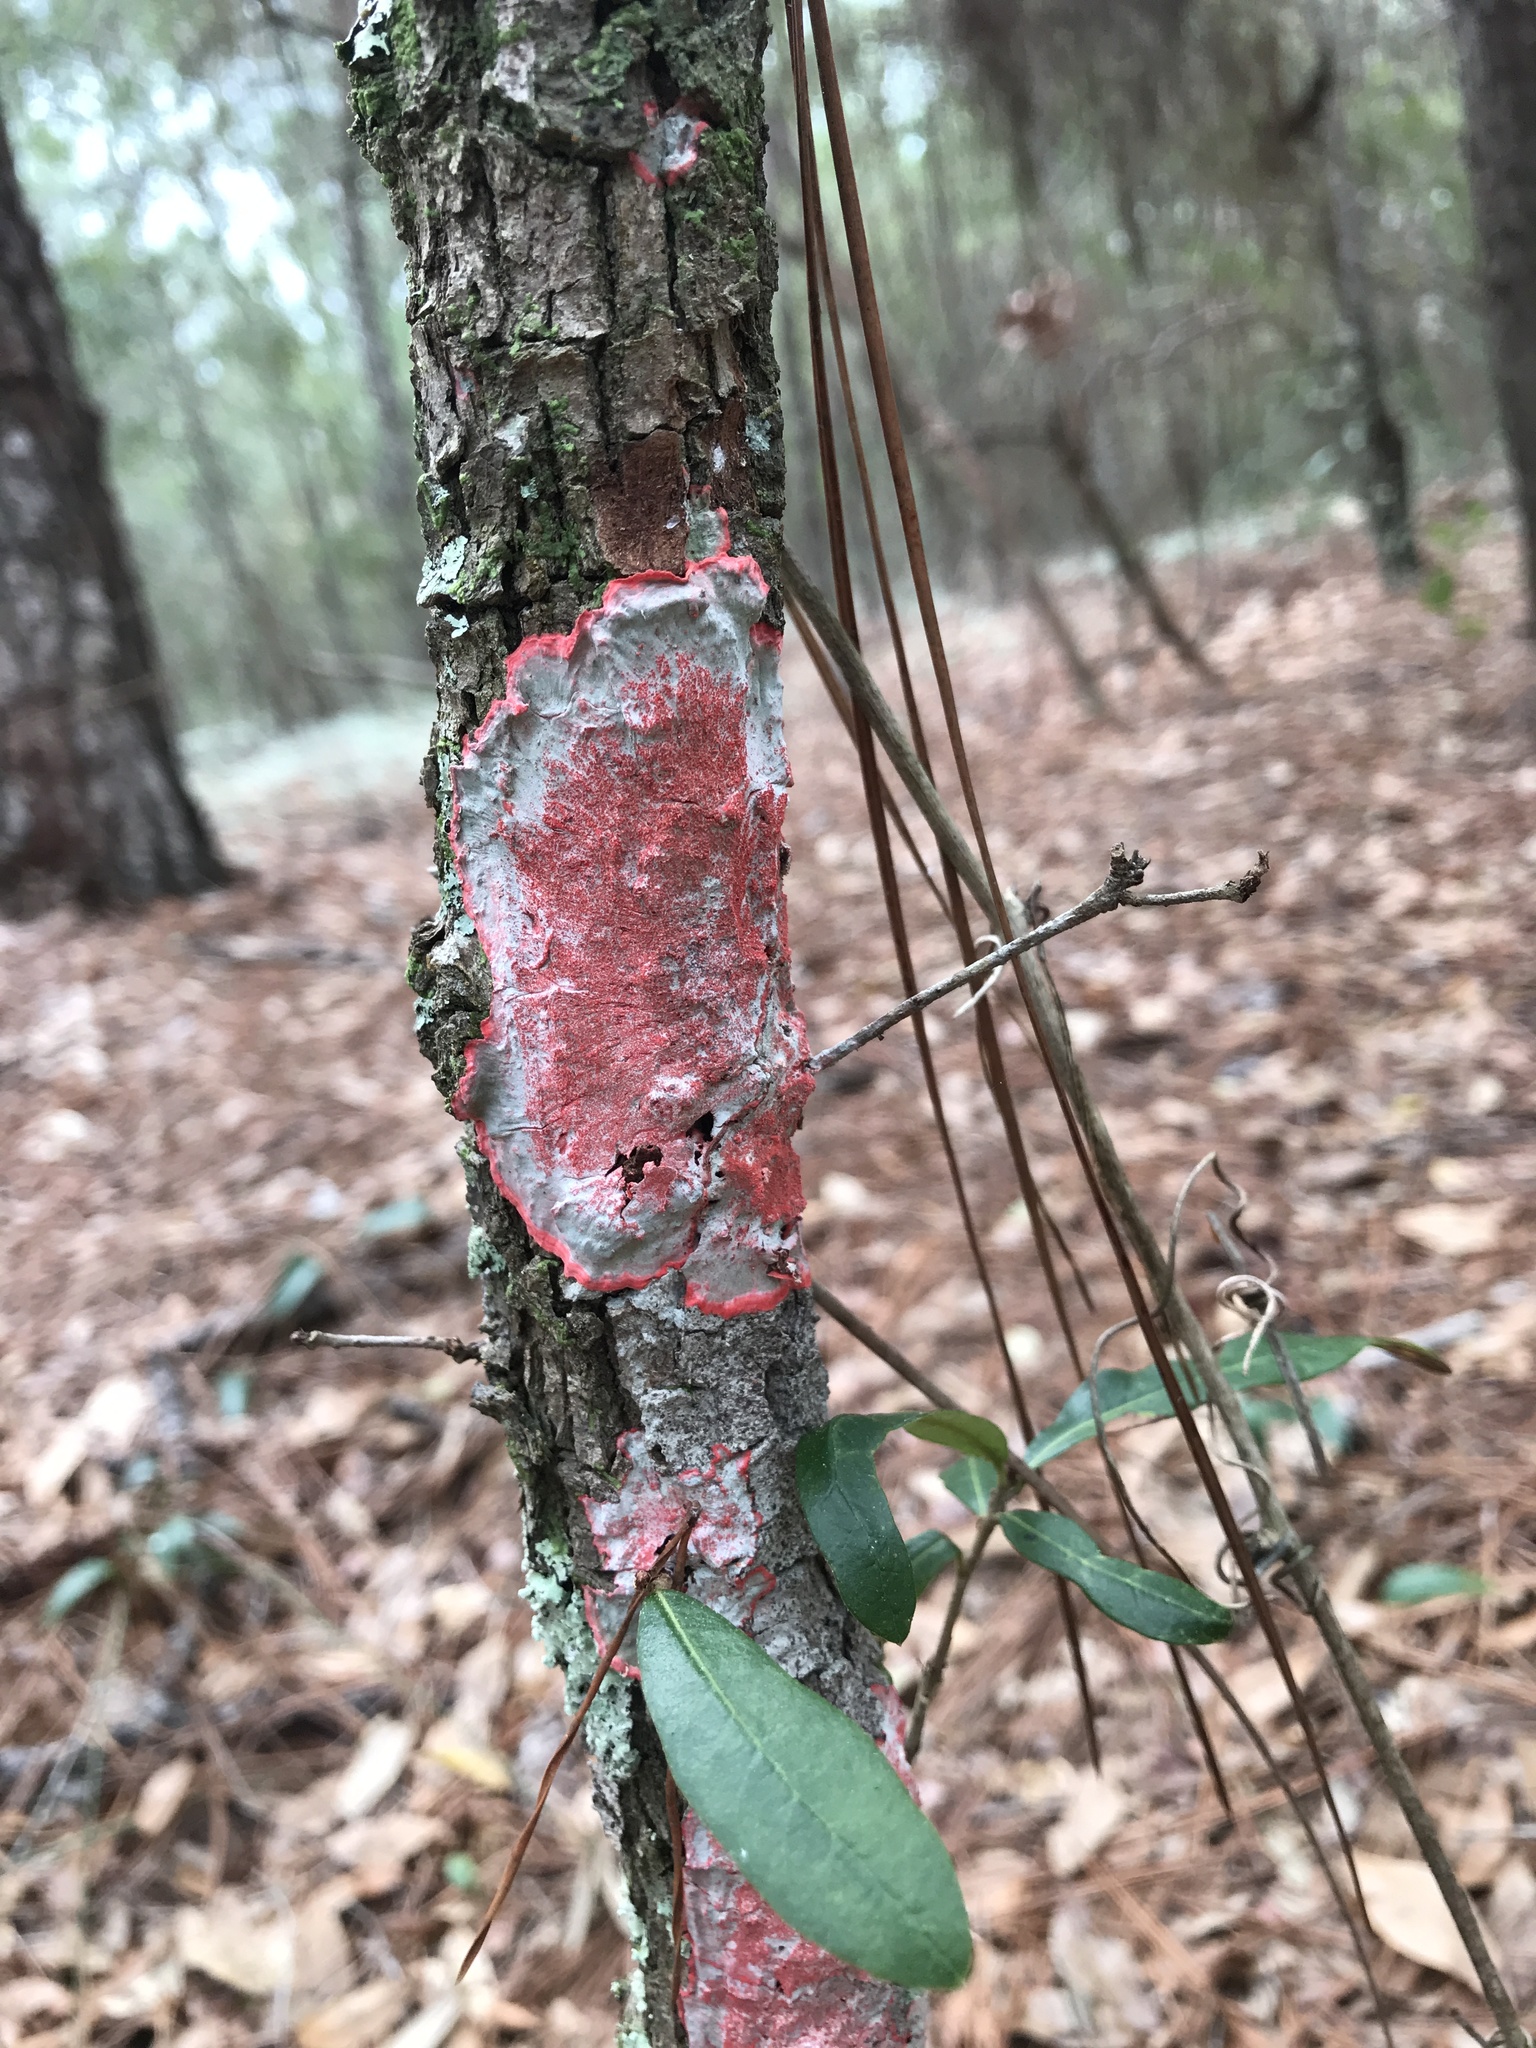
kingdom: Fungi
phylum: Ascomycota
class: Arthoniomycetes
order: Arthoniales
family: Arthoniaceae
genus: Herpothallon
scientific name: Herpothallon rubrocinctum
